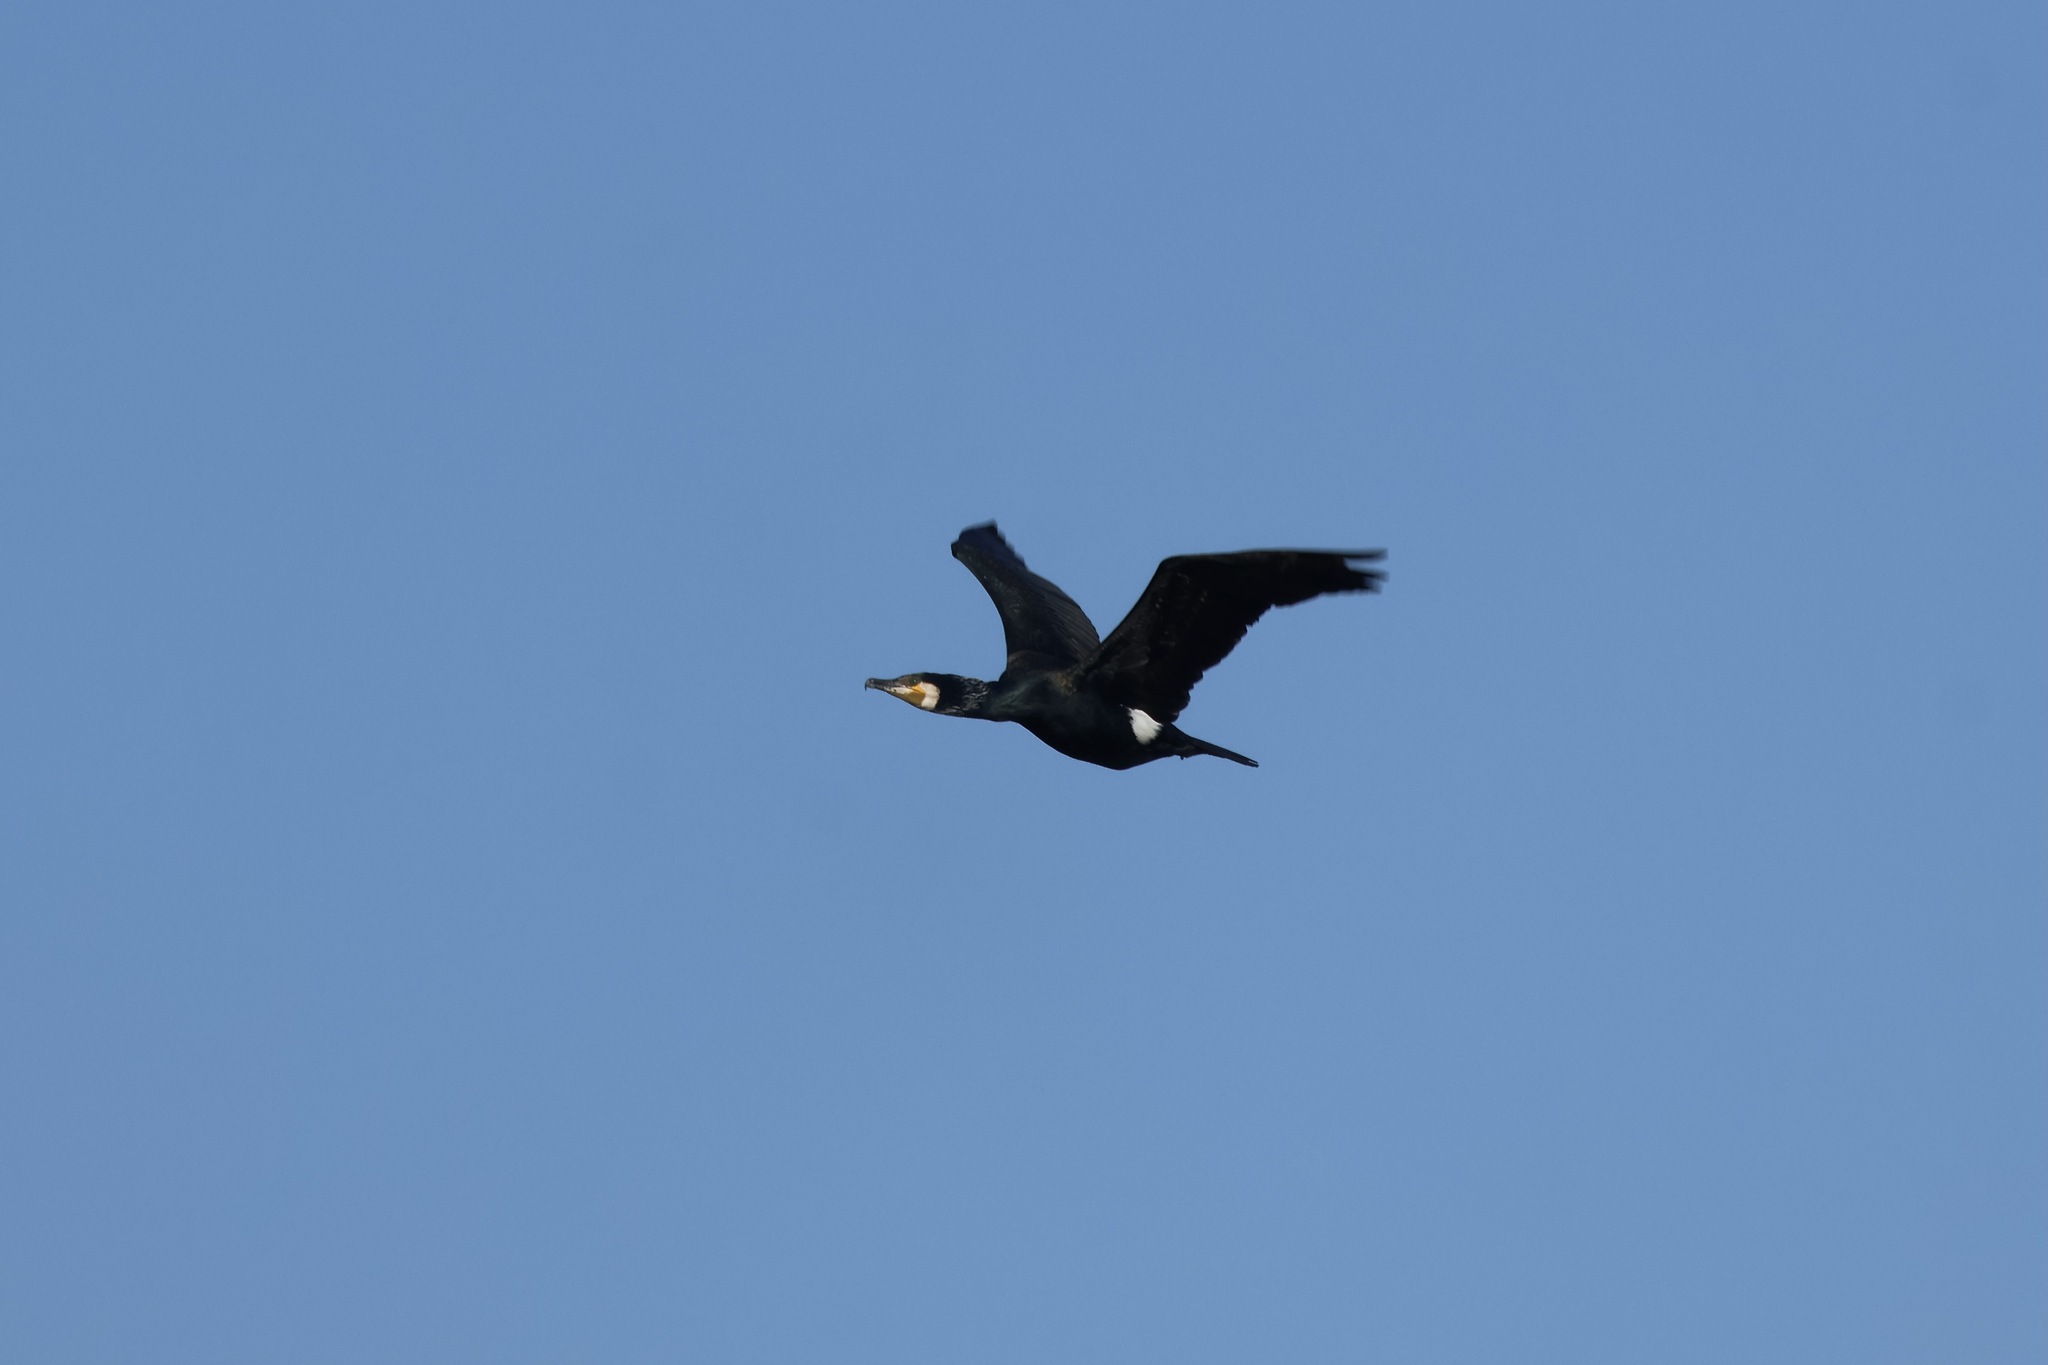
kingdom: Animalia
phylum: Chordata
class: Aves
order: Suliformes
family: Phalacrocoracidae
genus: Phalacrocorax
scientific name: Phalacrocorax carbo
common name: Great cormorant
